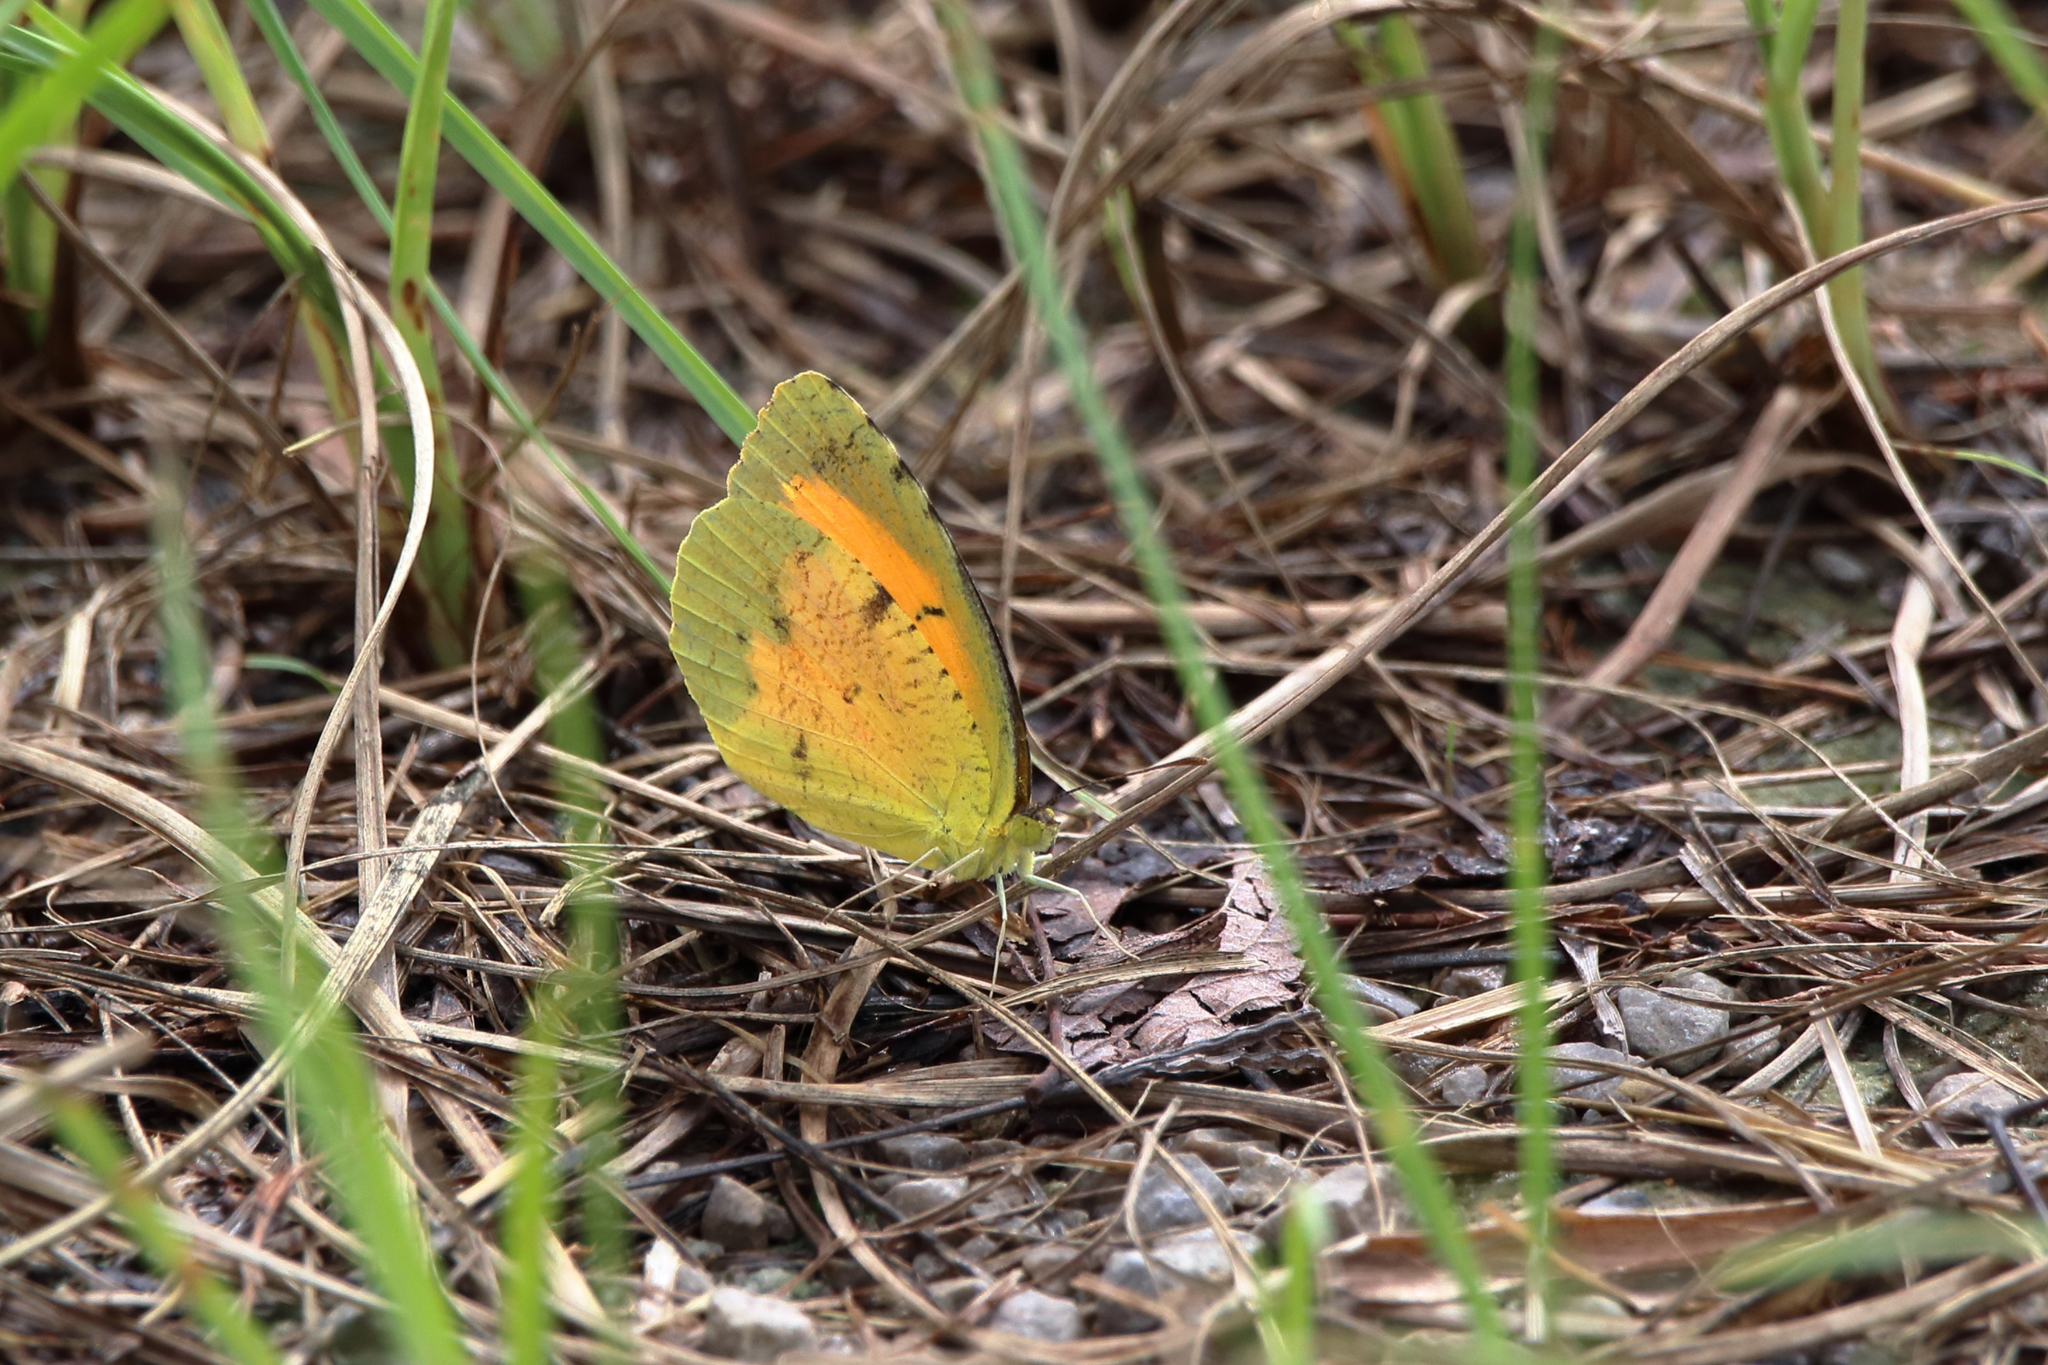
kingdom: Animalia
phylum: Arthropoda
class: Insecta
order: Lepidoptera
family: Pieridae
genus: Abaeis
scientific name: Abaeis nicippe
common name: Sleepy orange
